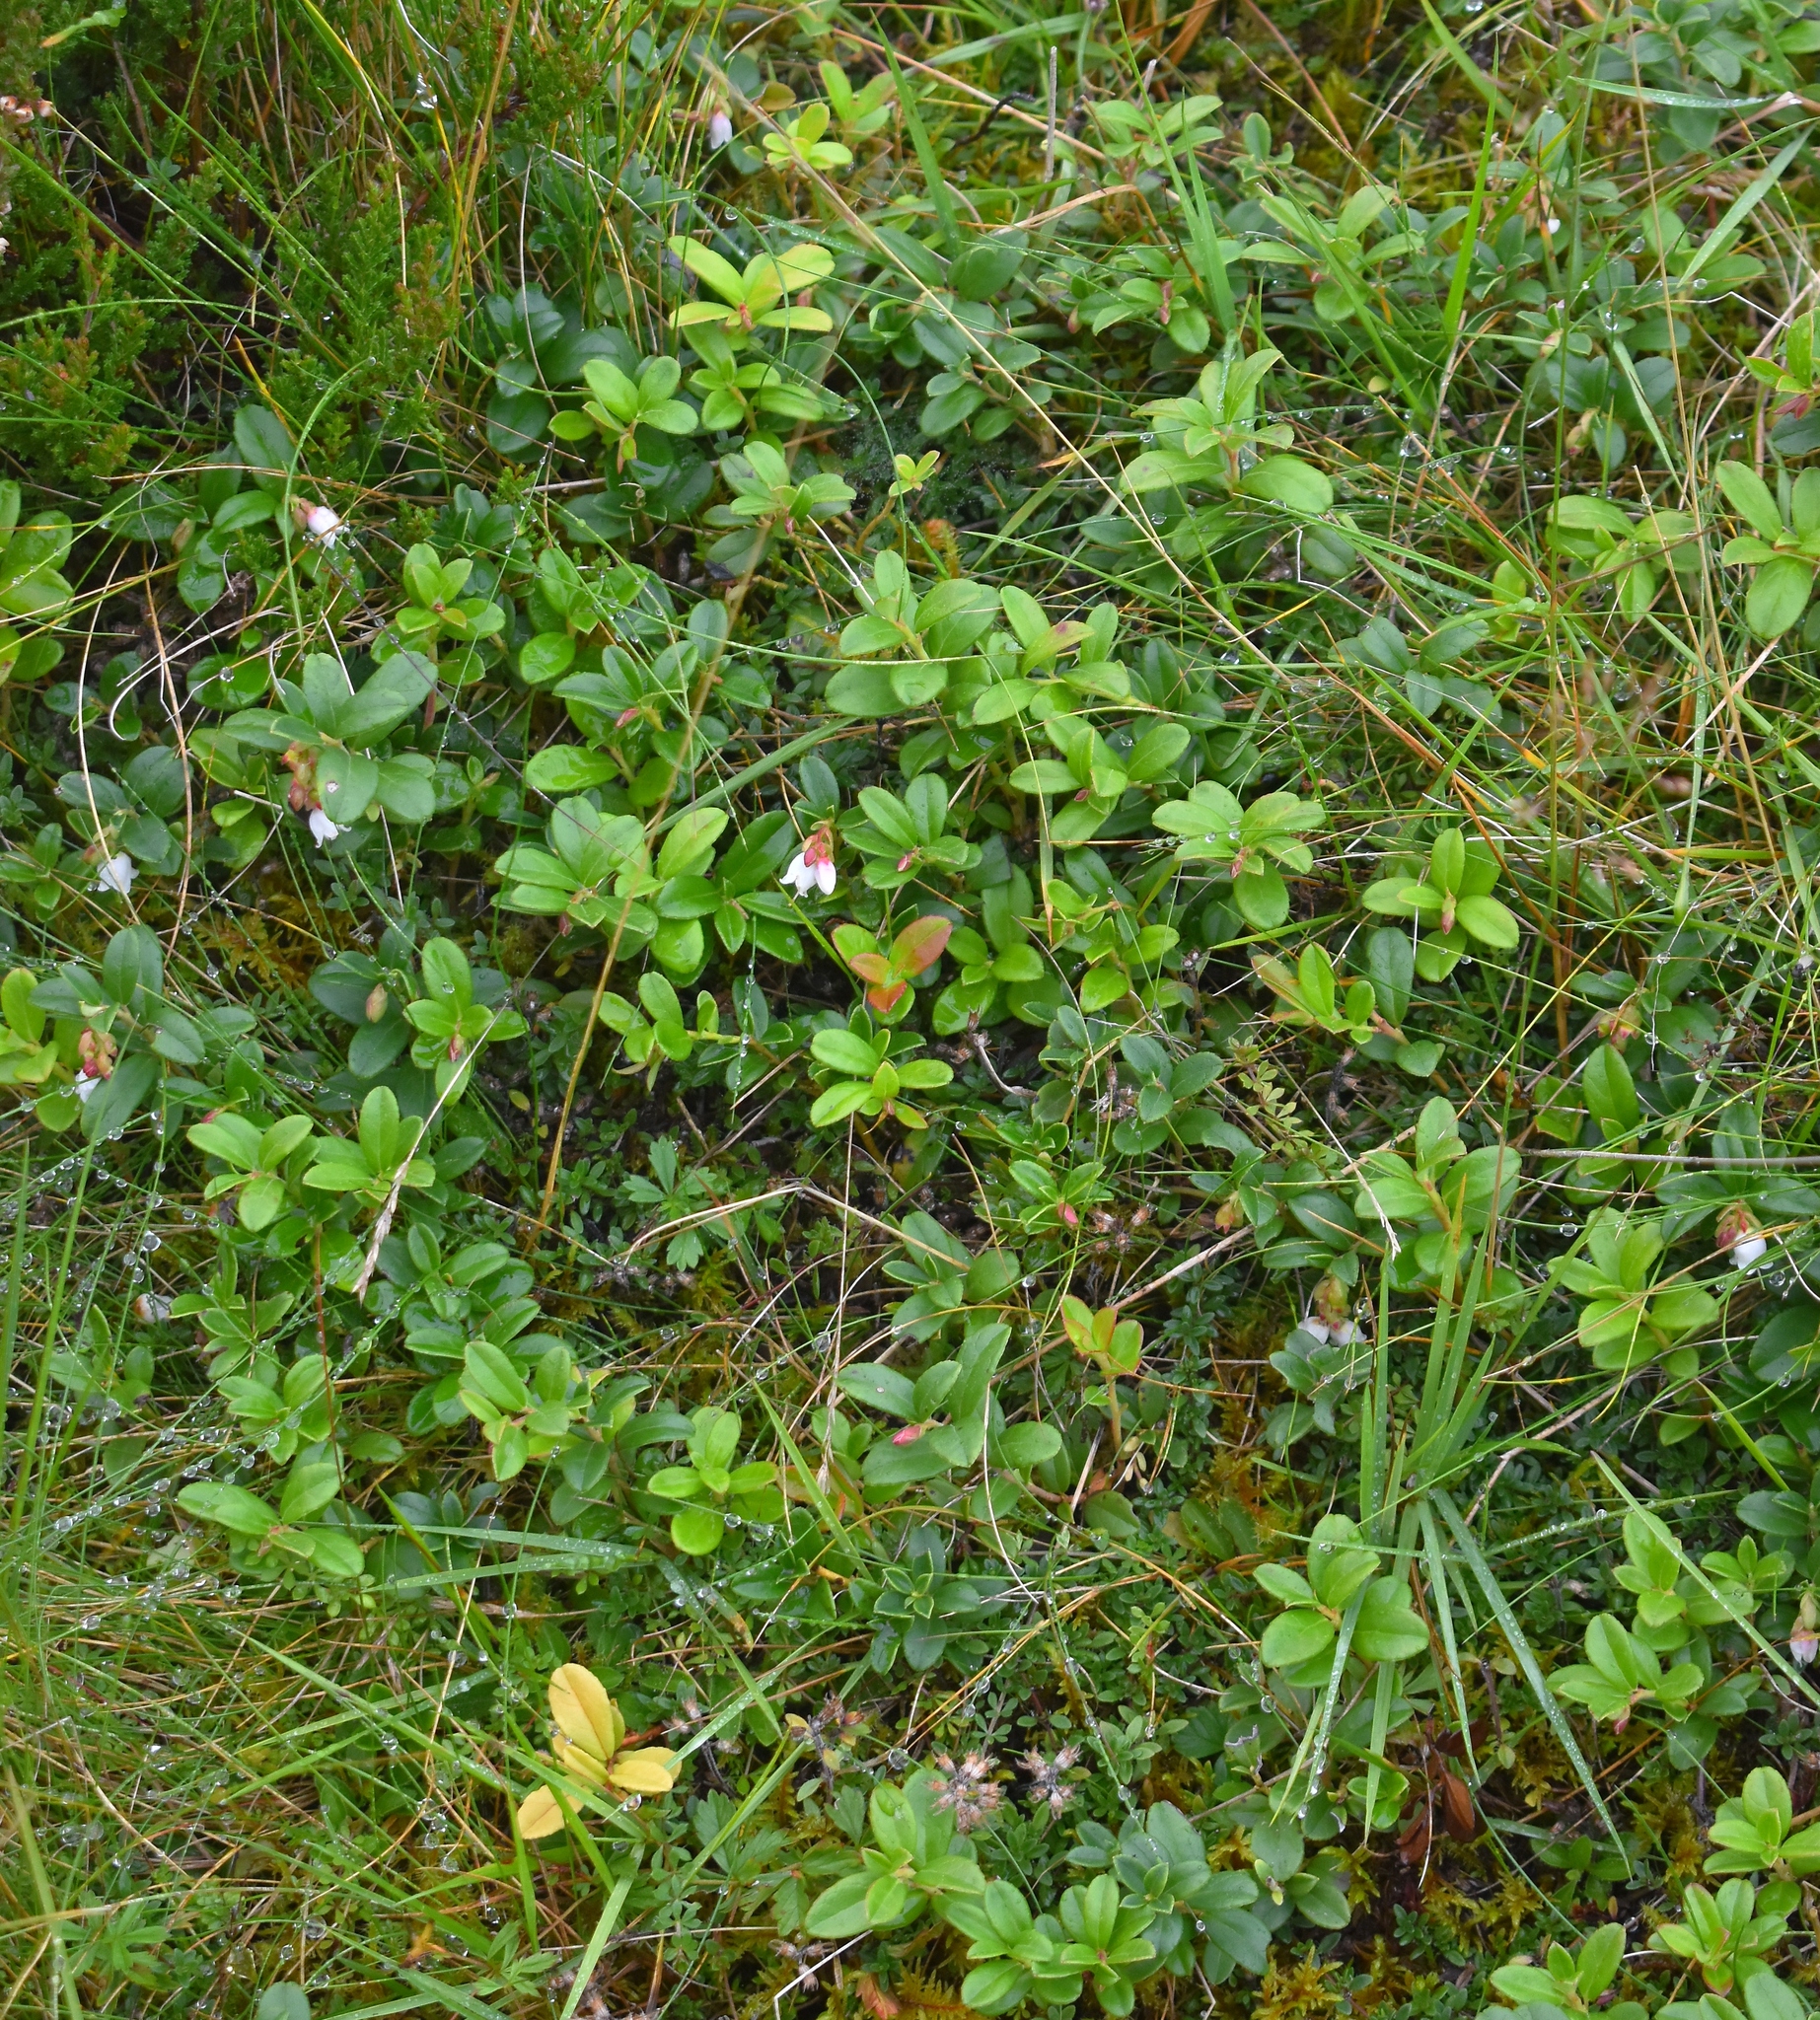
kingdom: Plantae
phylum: Tracheophyta
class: Magnoliopsida
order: Ericales
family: Ericaceae
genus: Vaccinium
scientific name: Vaccinium vitis-idaea
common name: Cowberry
